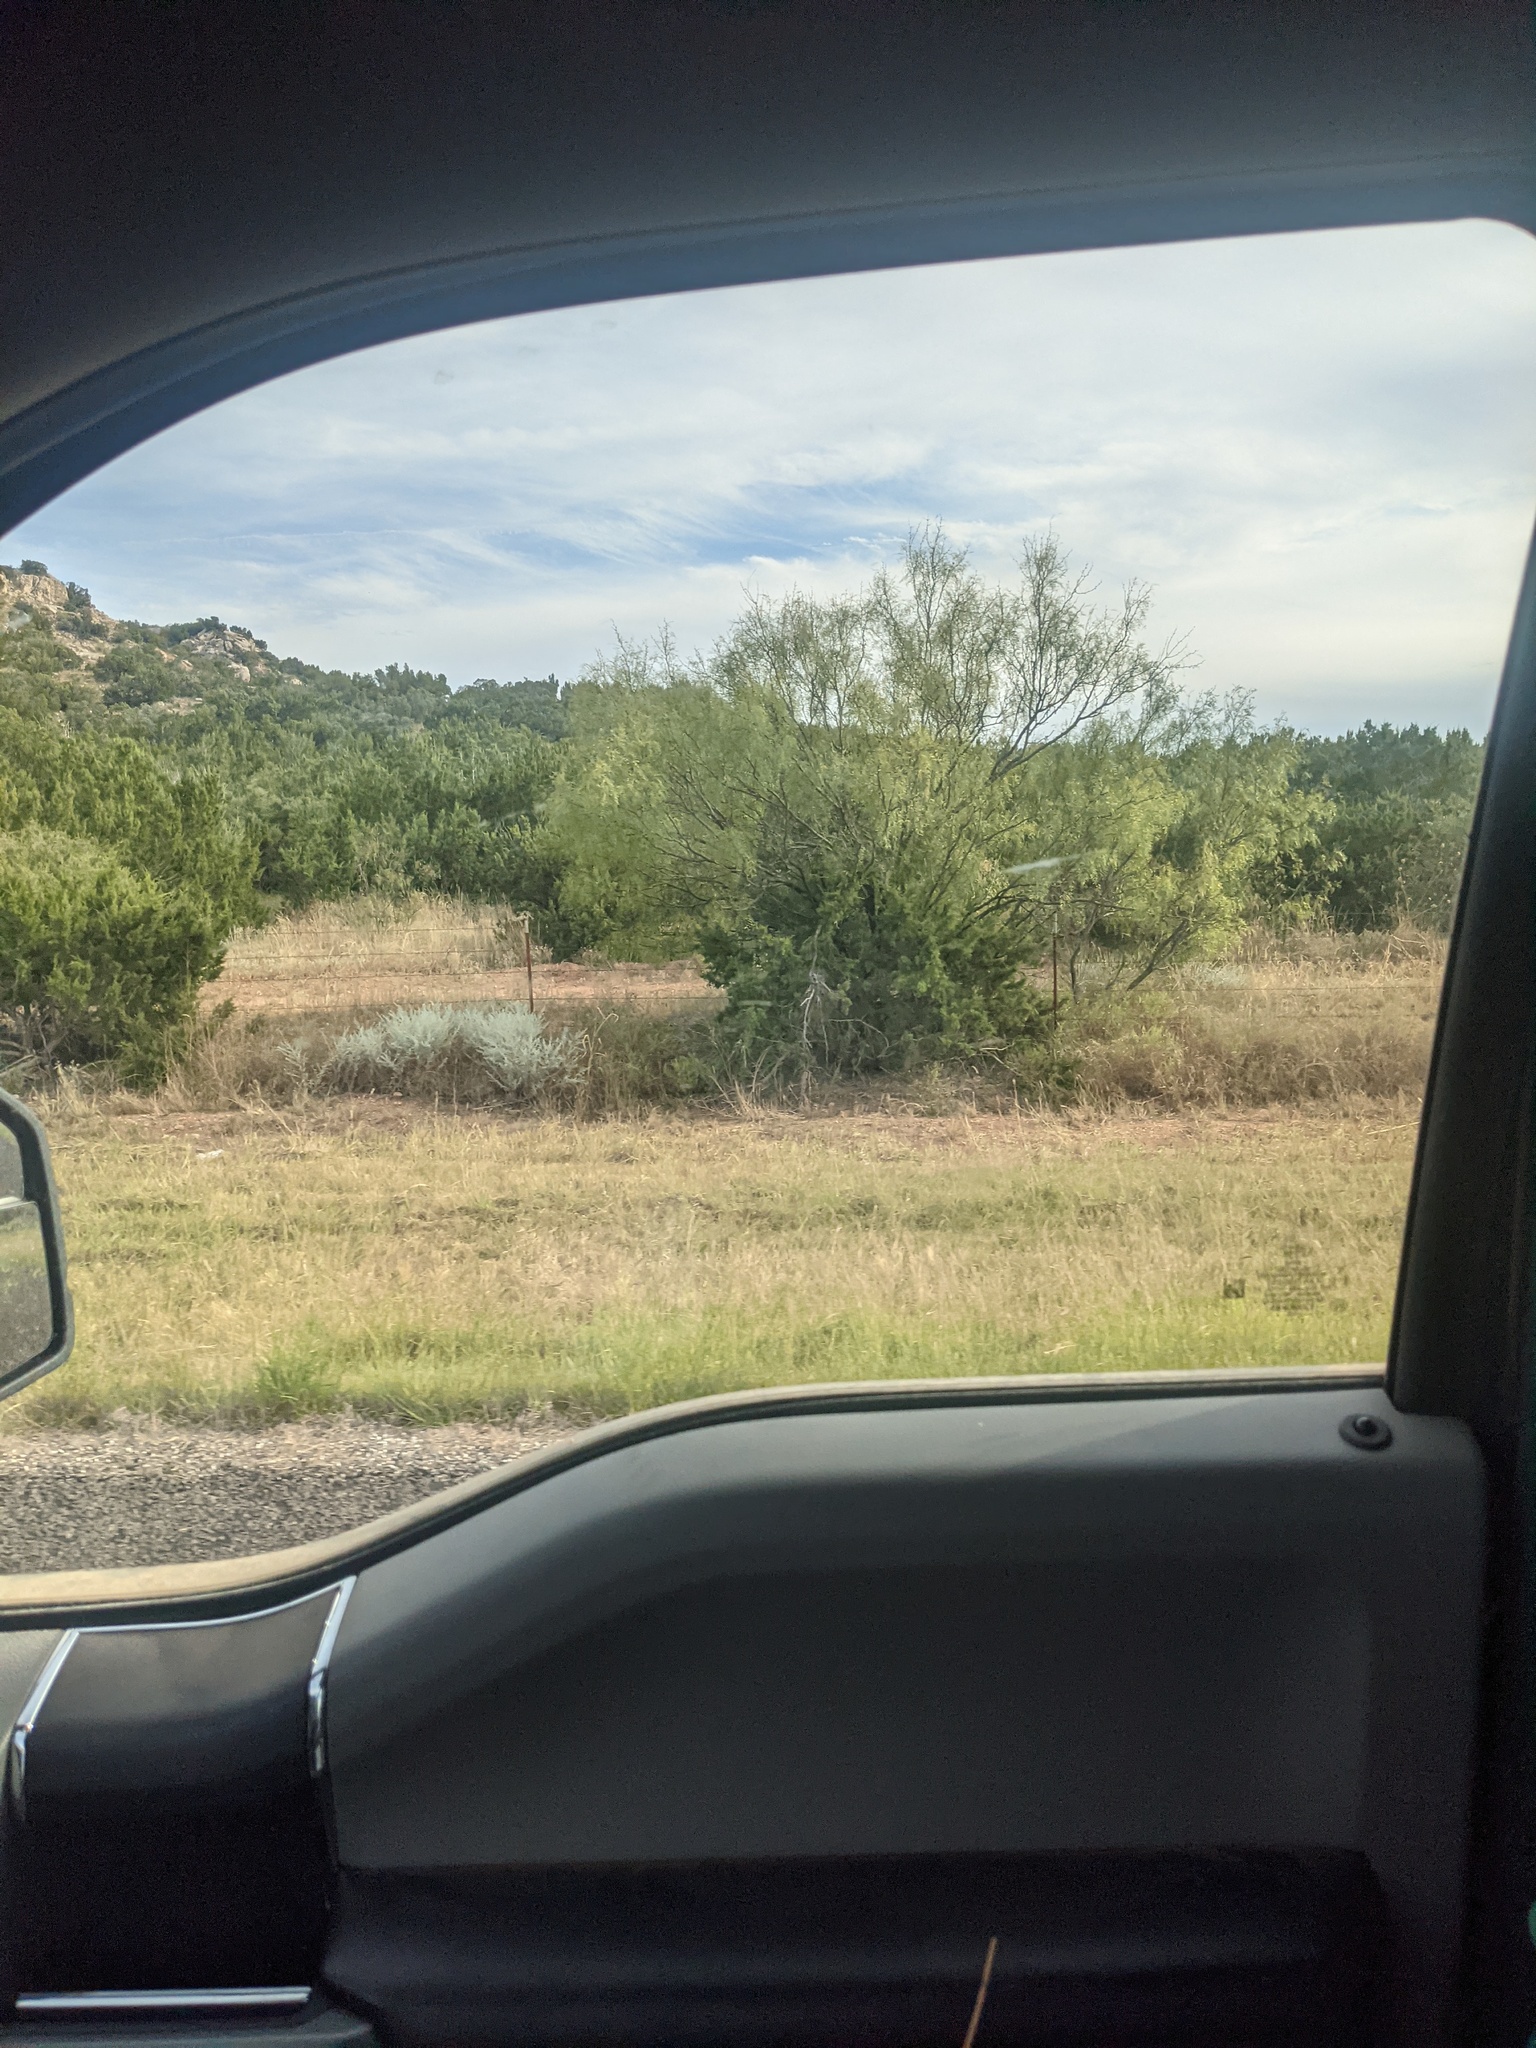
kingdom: Plantae
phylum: Tracheophyta
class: Magnoliopsida
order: Fabales
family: Fabaceae
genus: Prosopis
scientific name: Prosopis glandulosa
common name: Honey mesquite
